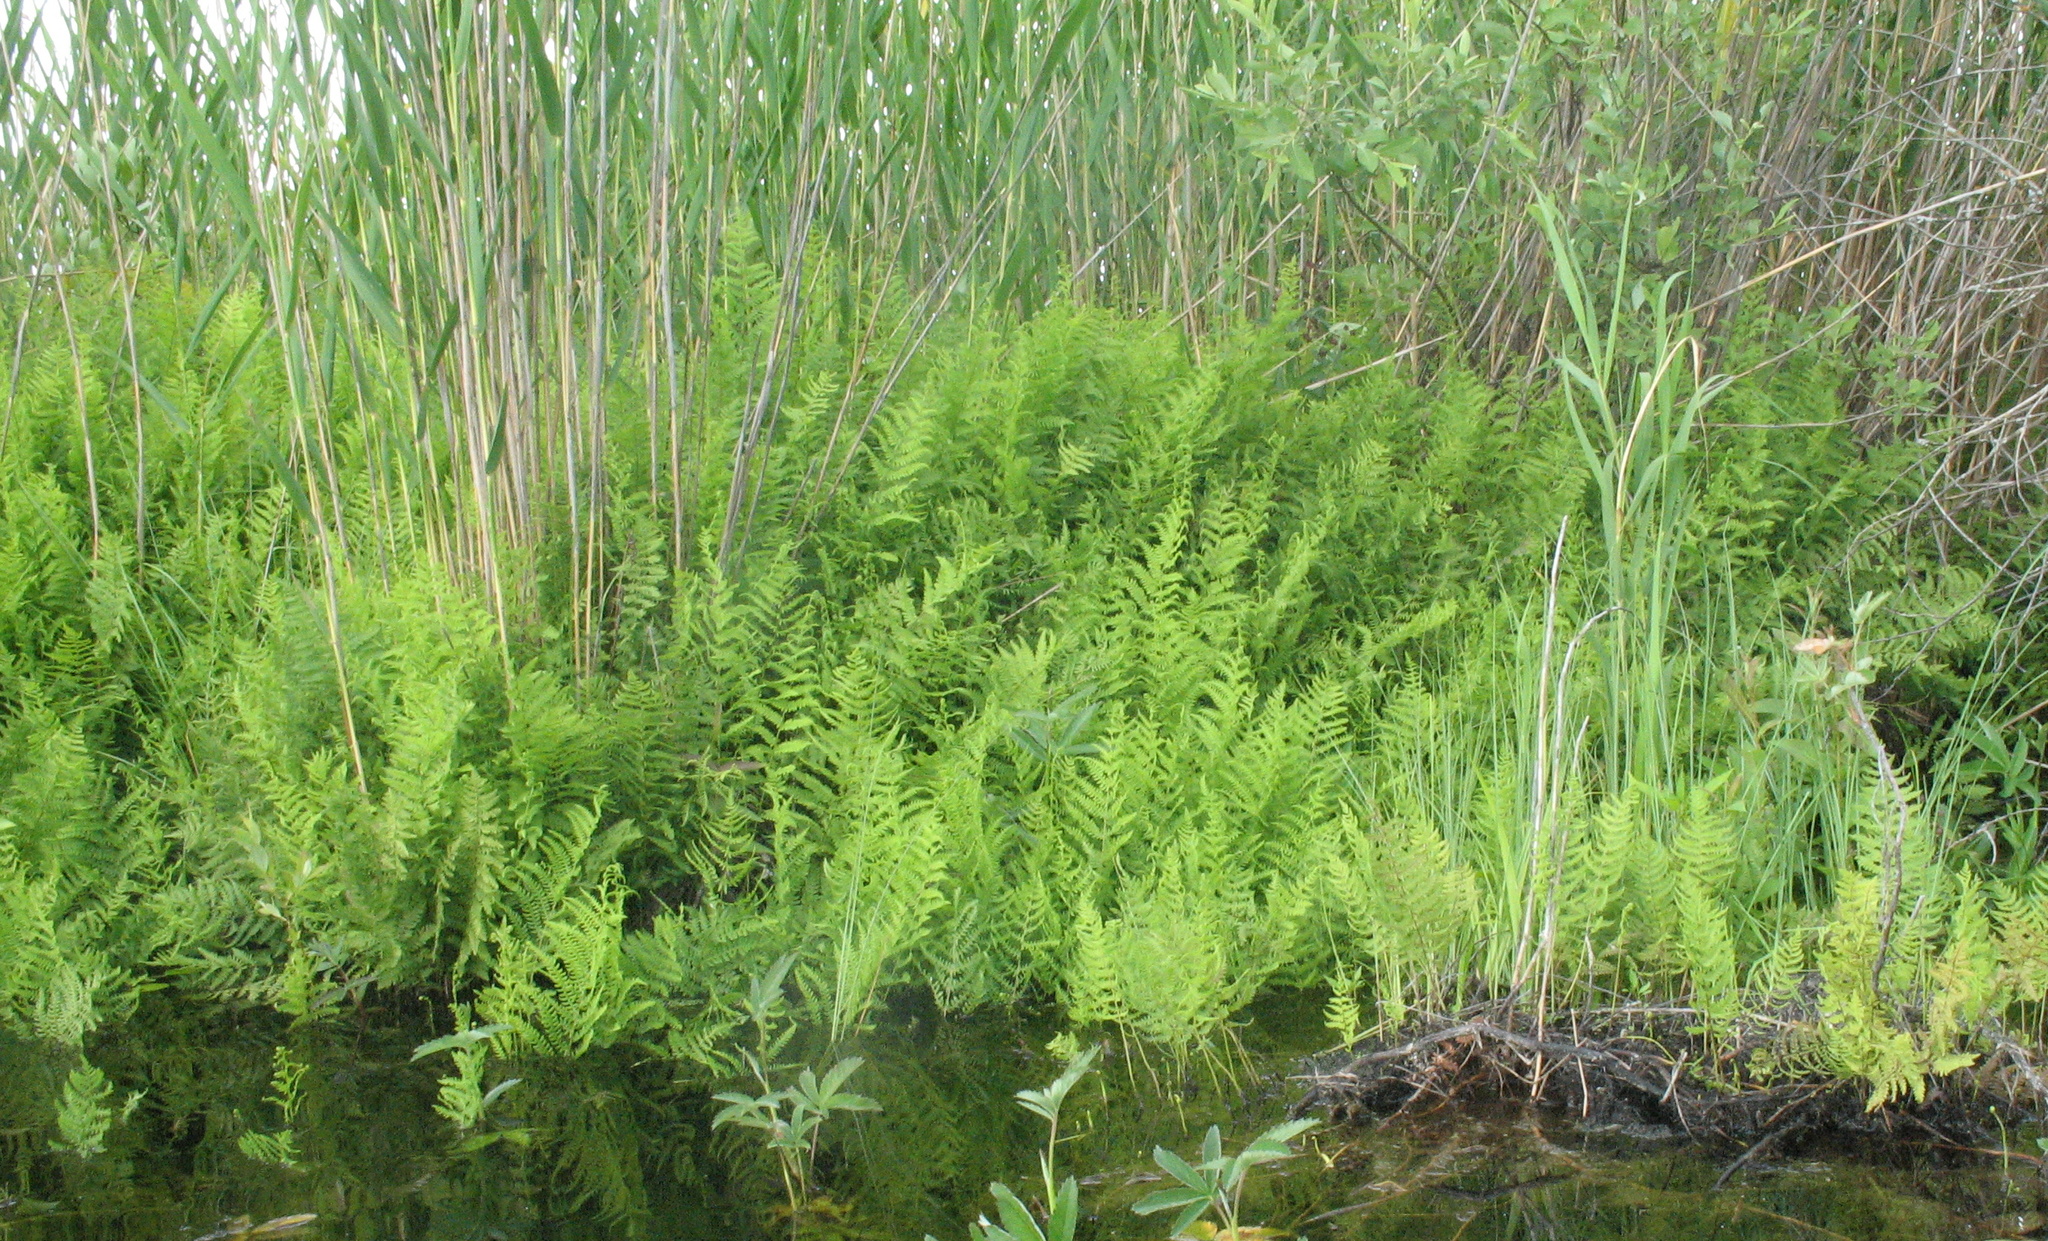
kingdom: Plantae
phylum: Tracheophyta
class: Polypodiopsida
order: Polypodiales
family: Thelypteridaceae
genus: Thelypteris
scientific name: Thelypteris palustris
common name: Marsh fern
